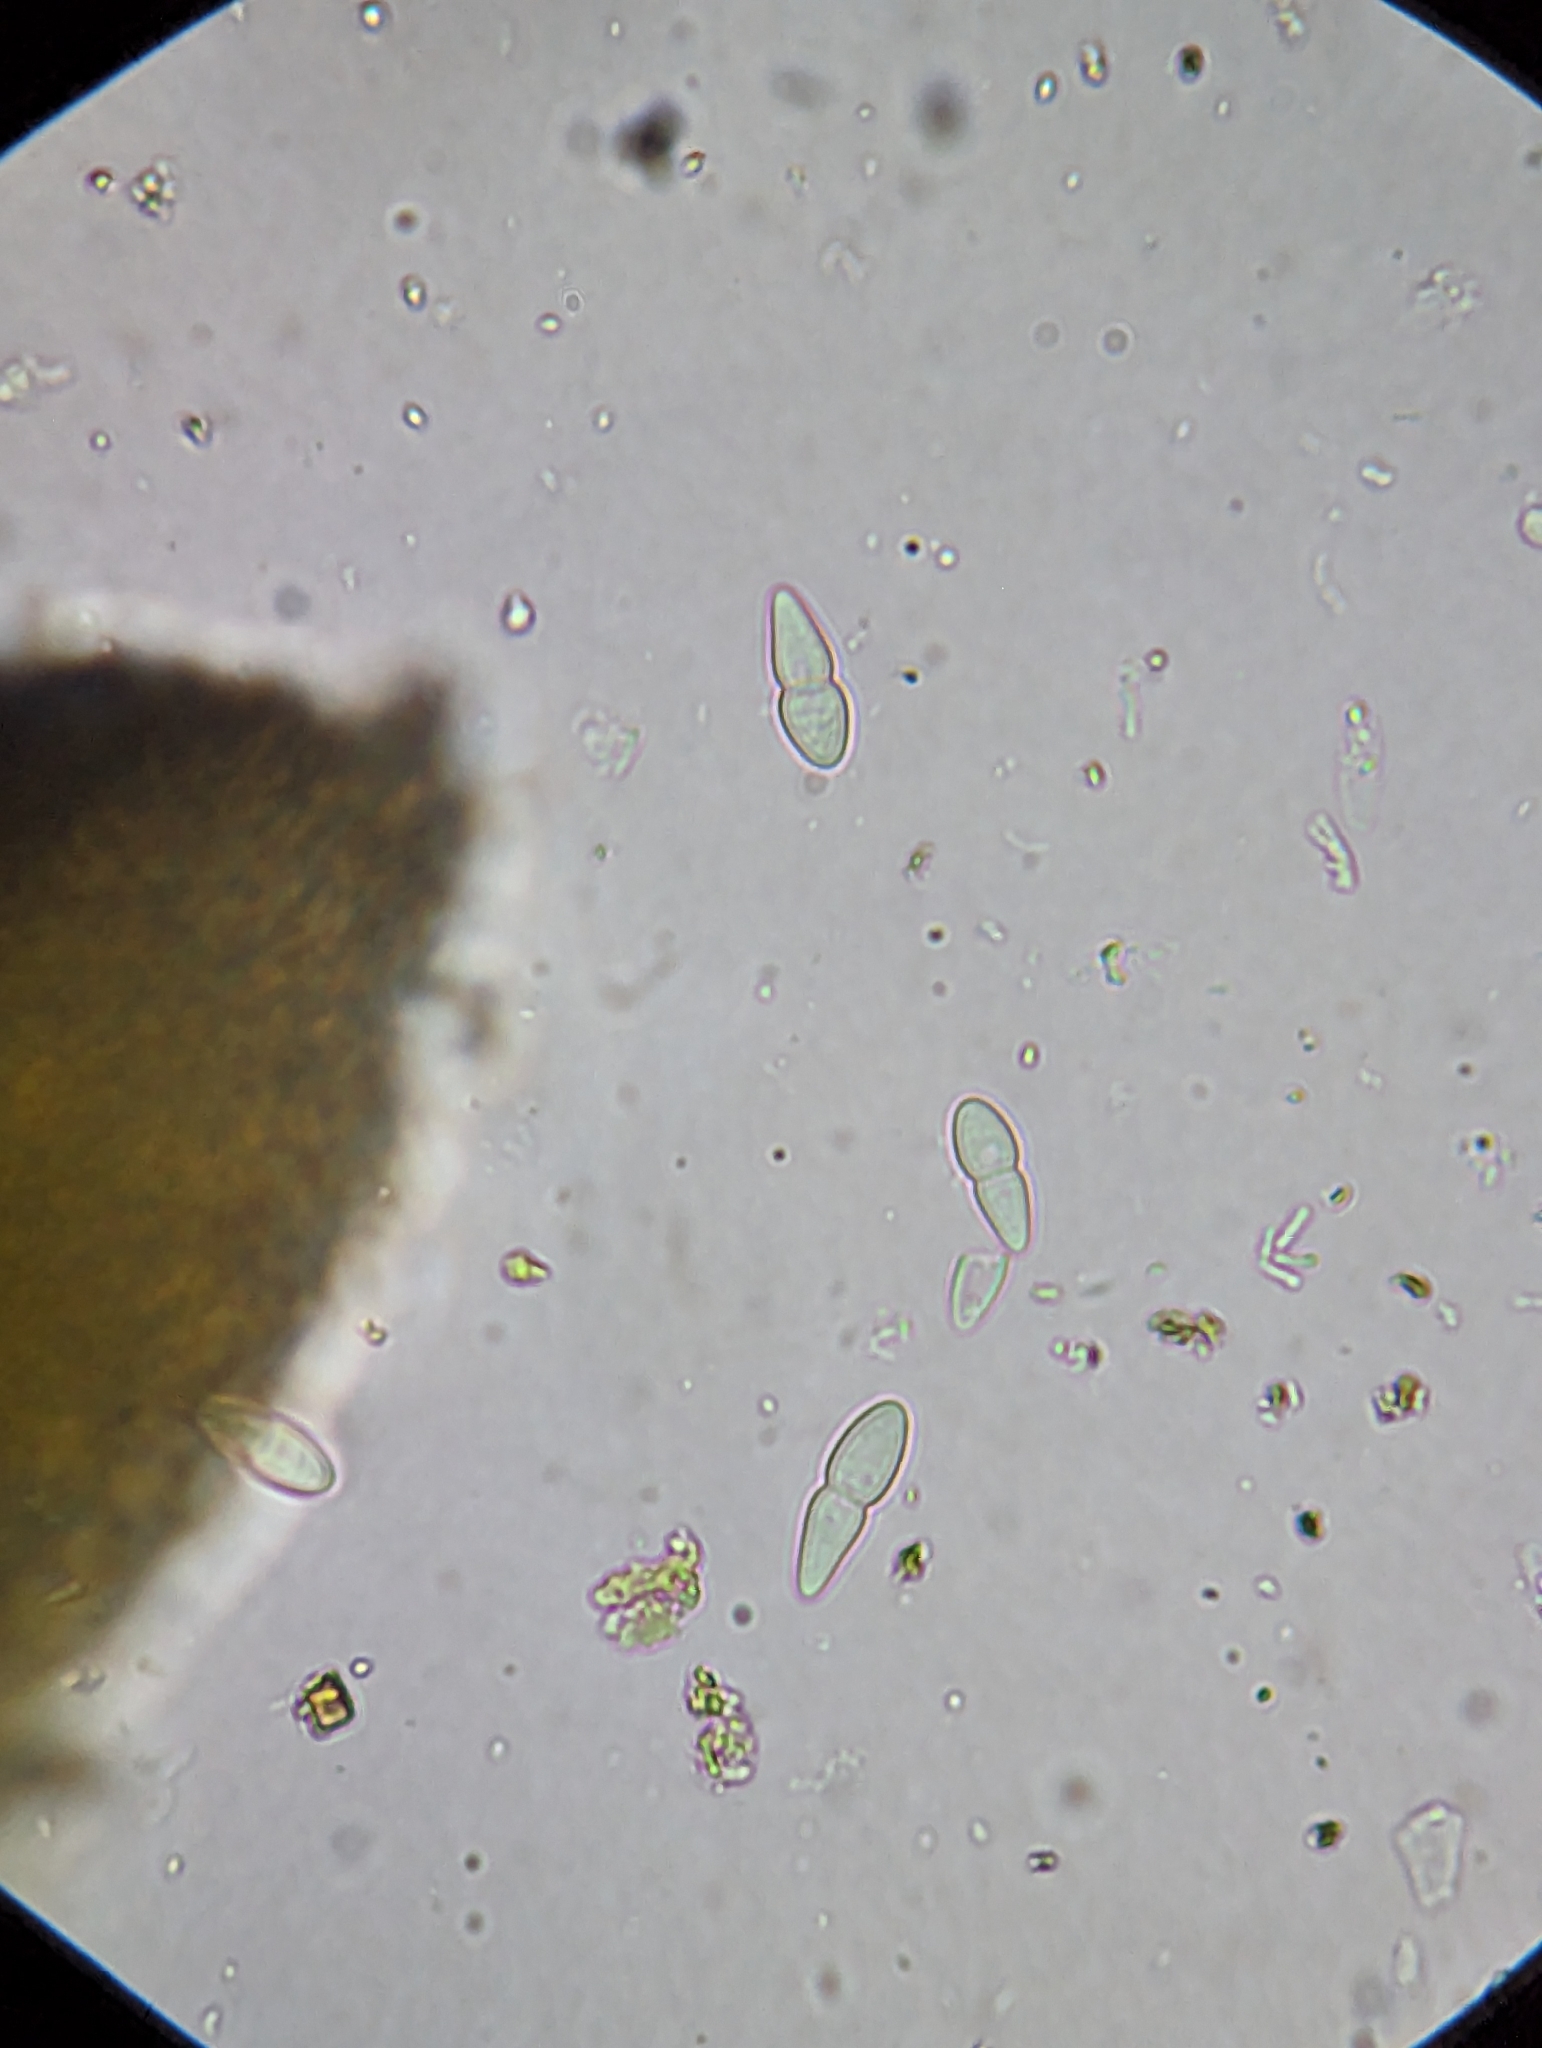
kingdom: Fungi
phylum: Ascomycota
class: Dothideomycetes
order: Mytilinidiales
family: Gloniaceae
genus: Psiloglonium
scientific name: Psiloglonium stygium
